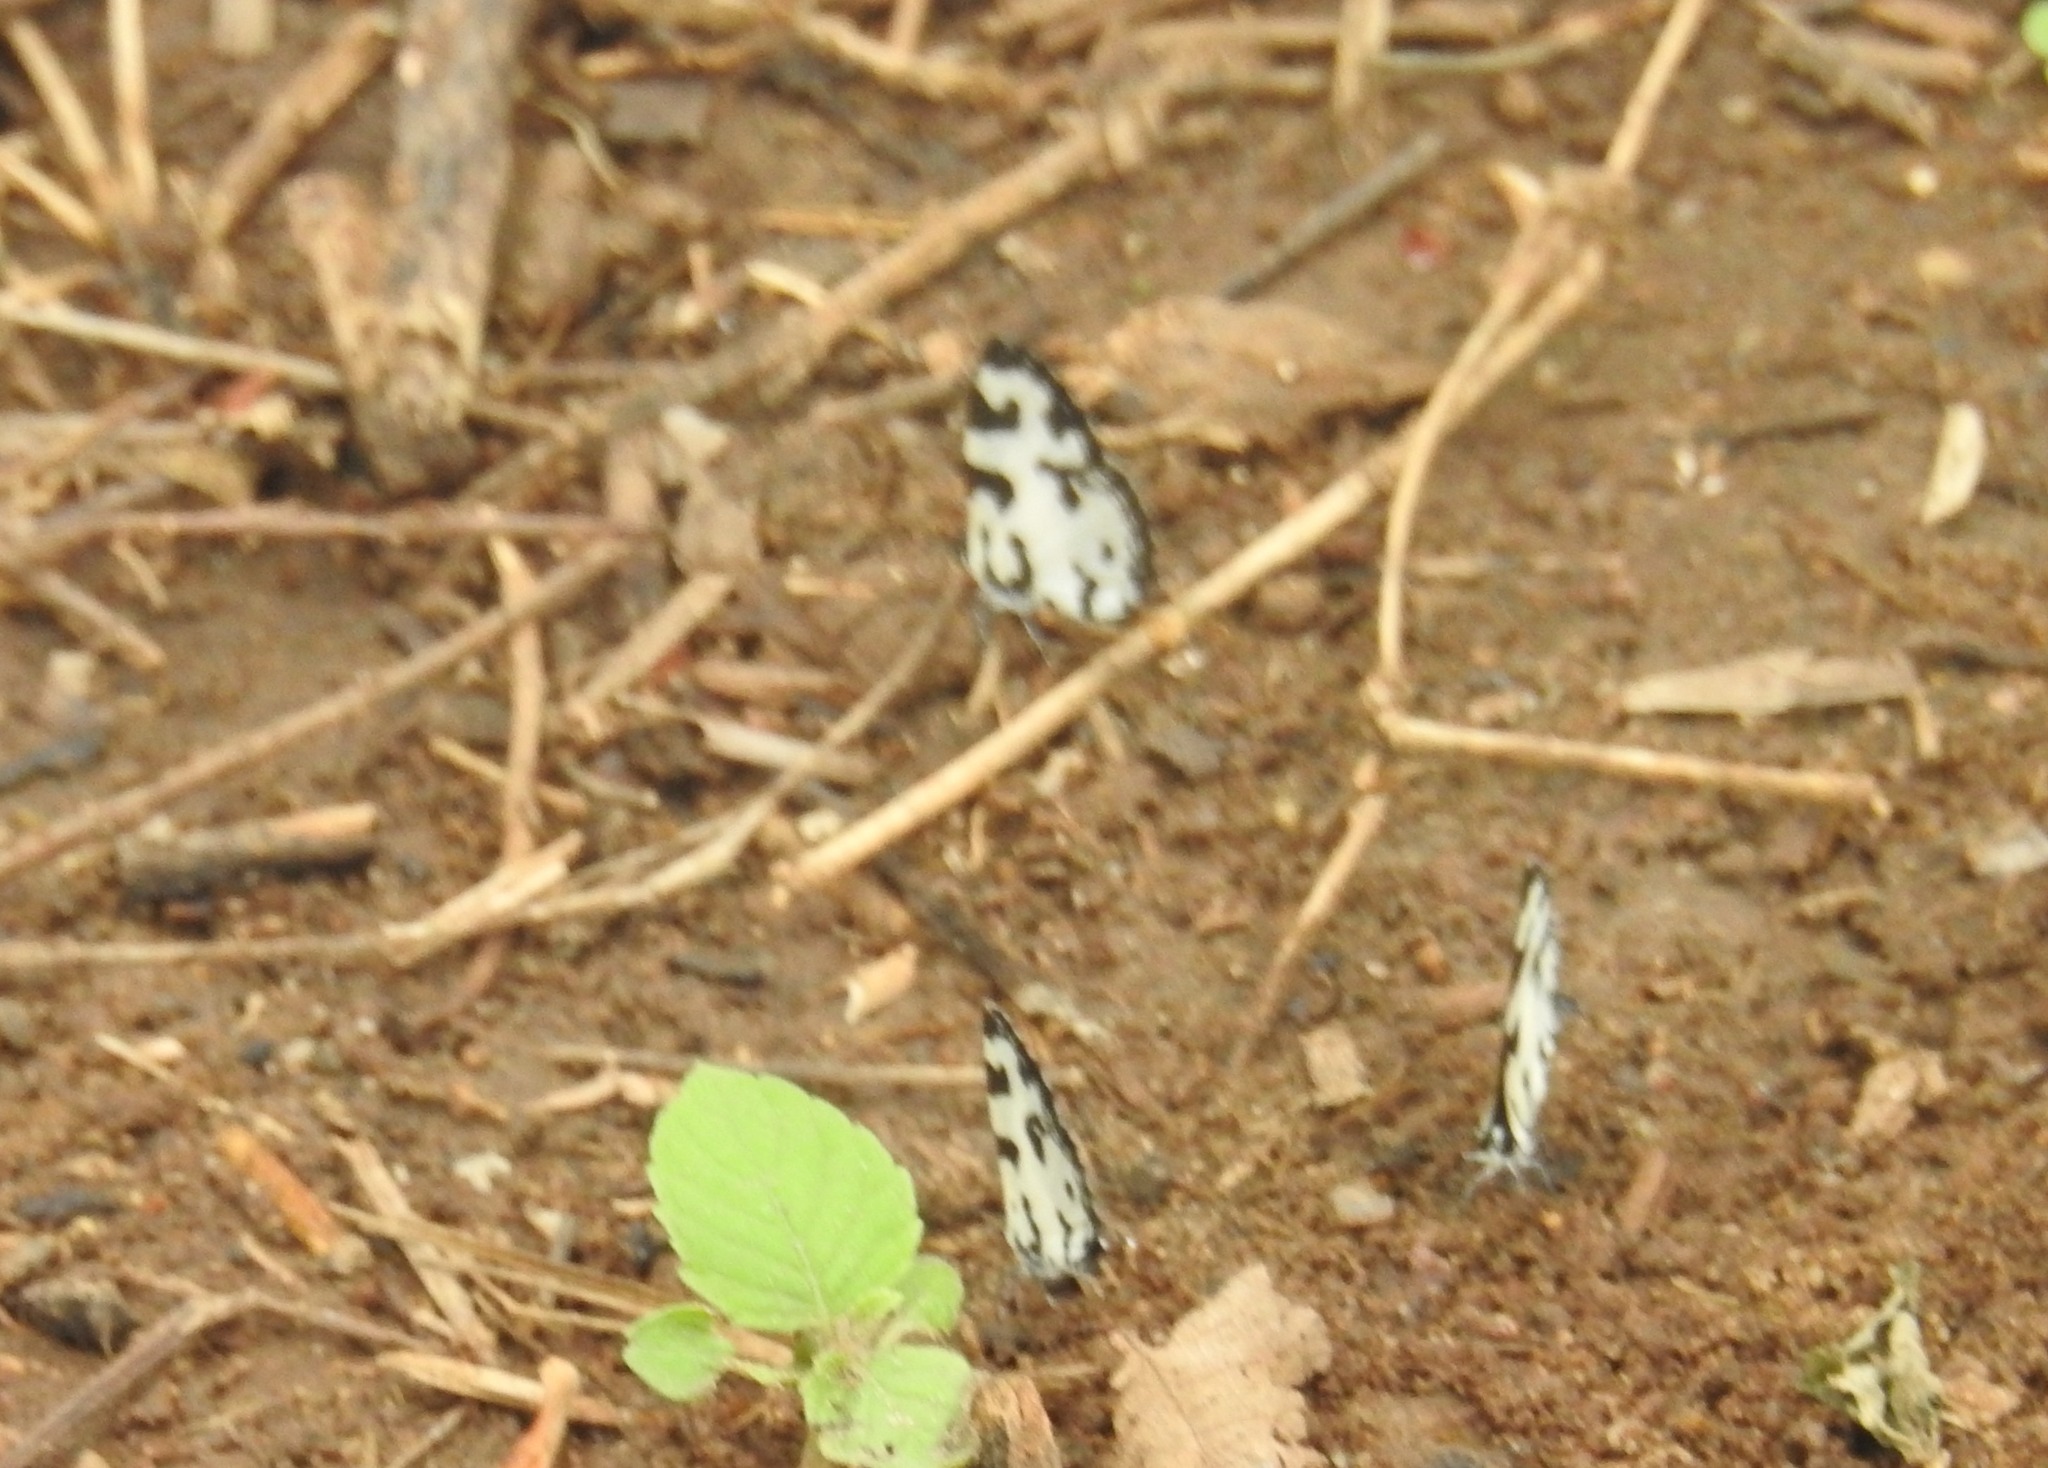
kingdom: Animalia
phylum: Arthropoda
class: Insecta
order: Lepidoptera
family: Lycaenidae
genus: Caleta
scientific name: Caleta decidia
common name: Angled pierrot
